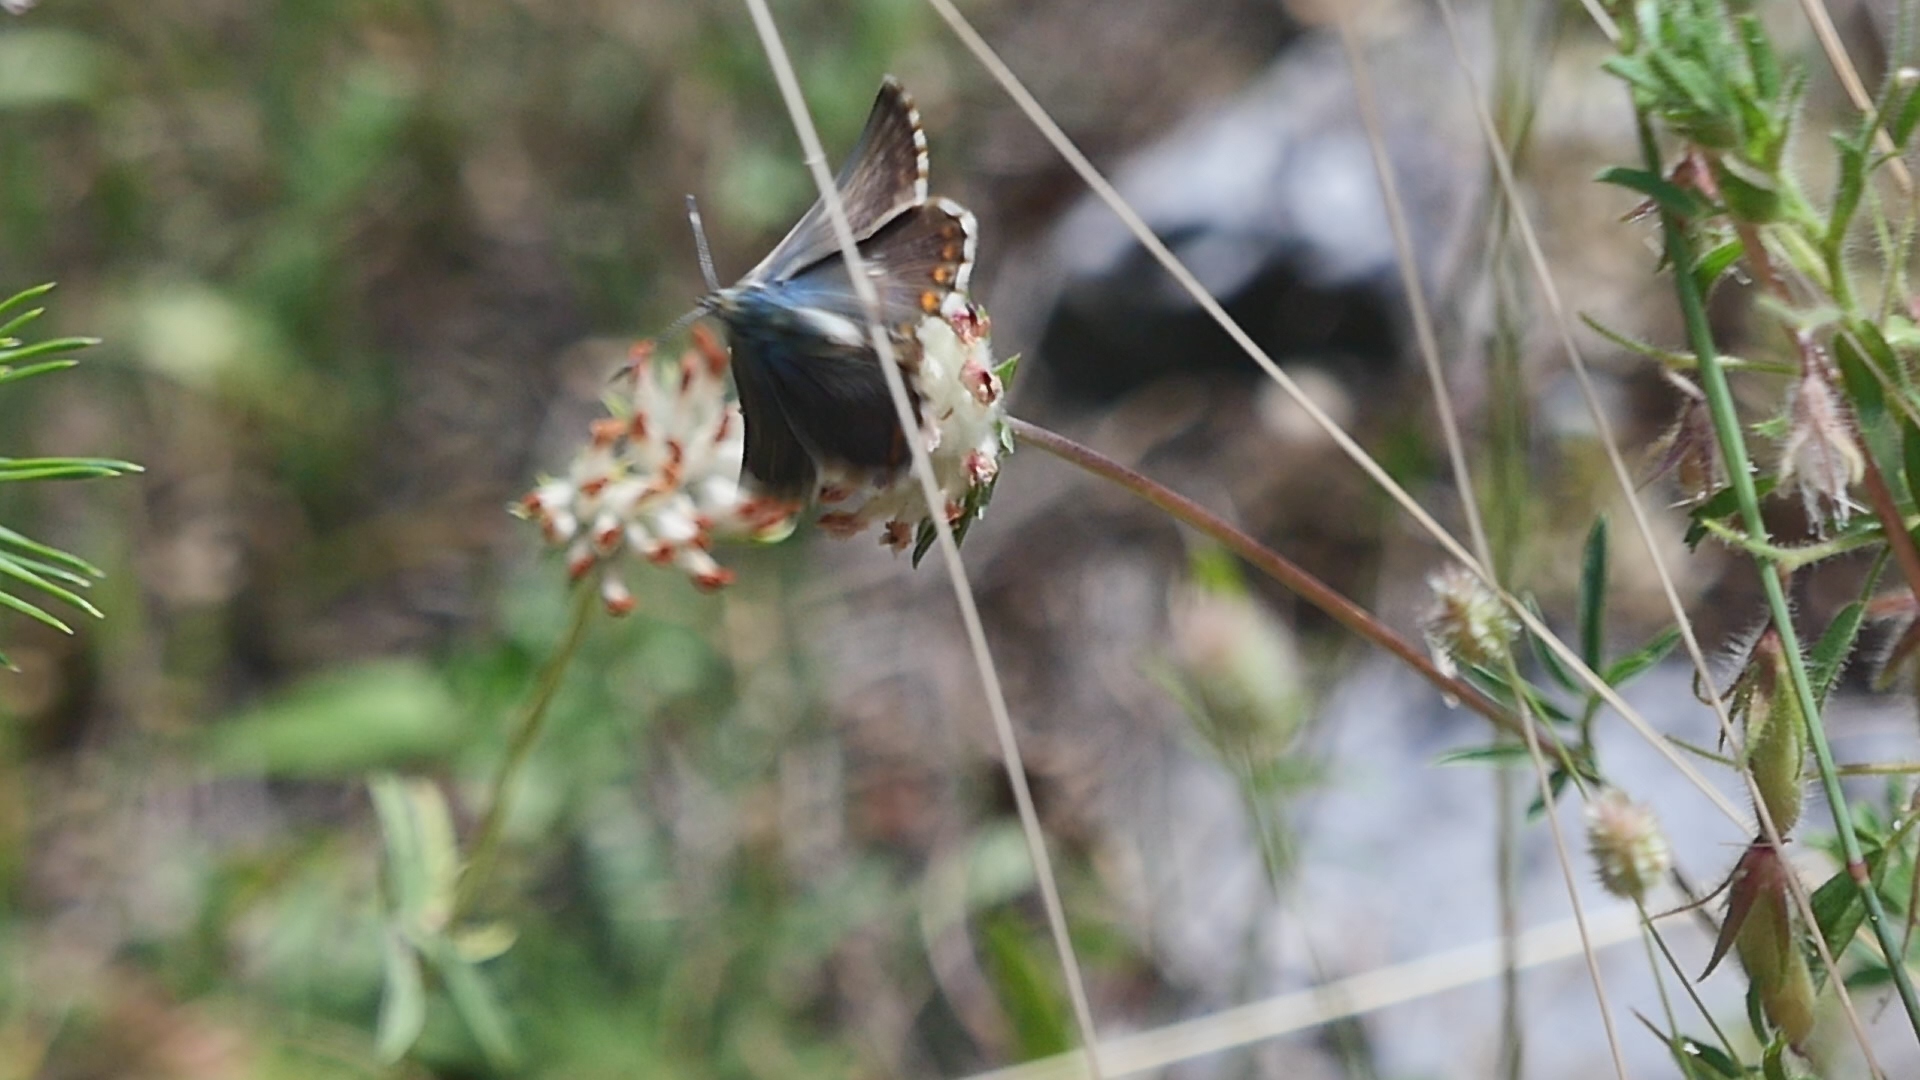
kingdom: Animalia
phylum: Arthropoda
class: Insecta
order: Lepidoptera
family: Lycaenidae
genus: Lysandra
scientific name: Lysandra bellargus
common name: Adonis blue
